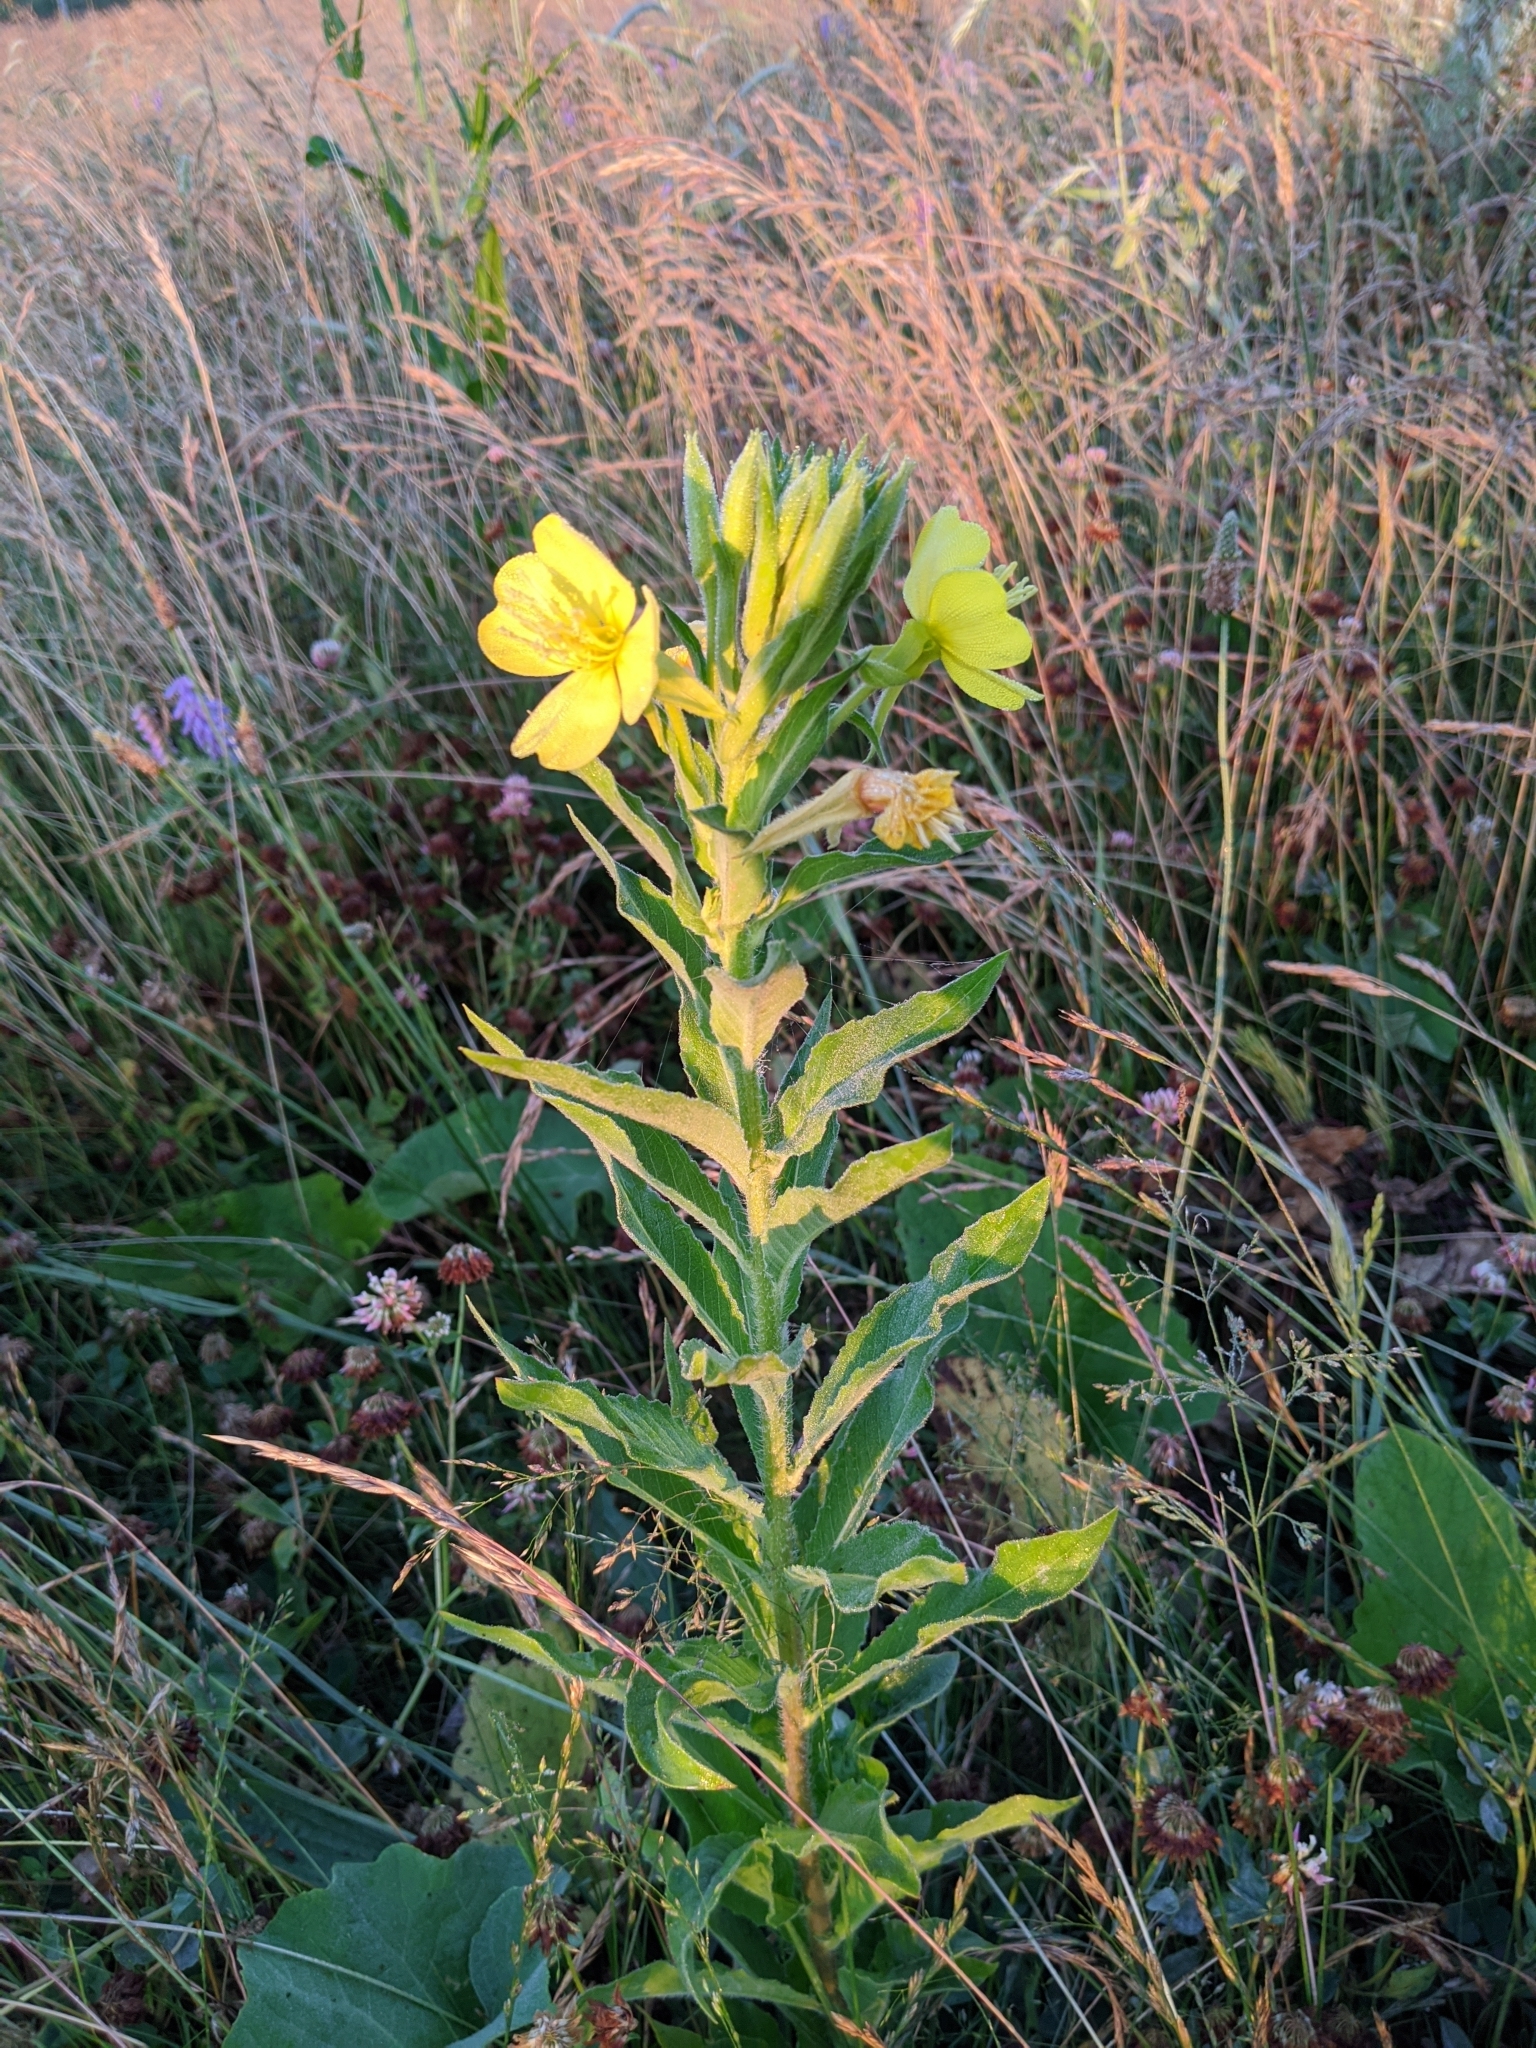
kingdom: Plantae
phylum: Tracheophyta
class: Magnoliopsida
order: Myrtales
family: Onagraceae
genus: Oenothera
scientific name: Oenothera biennis
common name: Common evening-primrose
